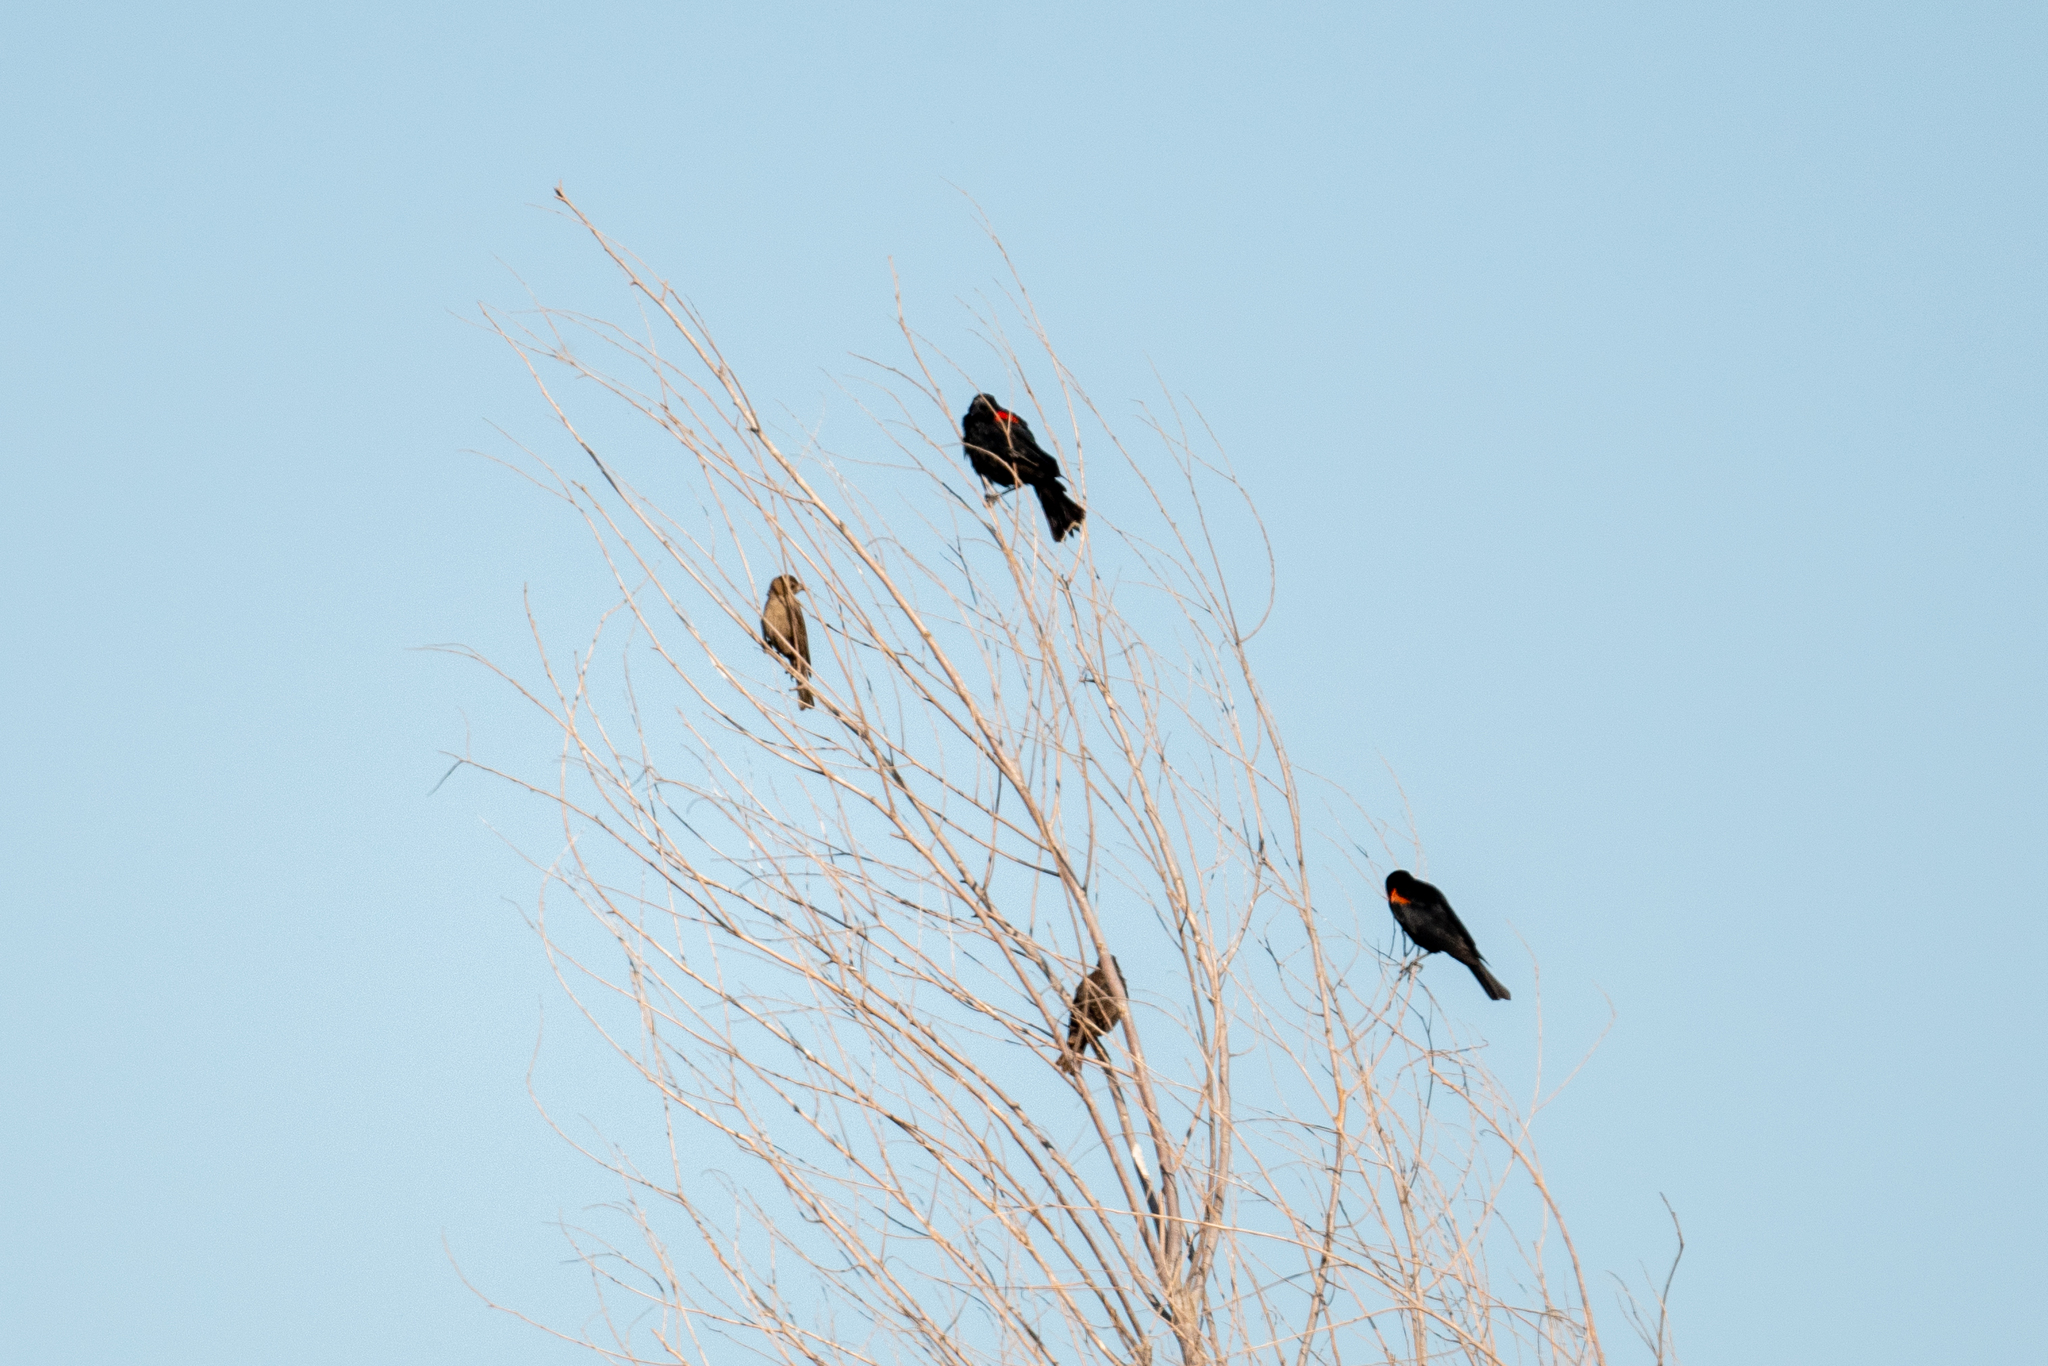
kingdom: Animalia
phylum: Chordata
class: Aves
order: Passeriformes
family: Icteridae
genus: Agelaius
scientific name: Agelaius phoeniceus
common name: Red-winged blackbird
